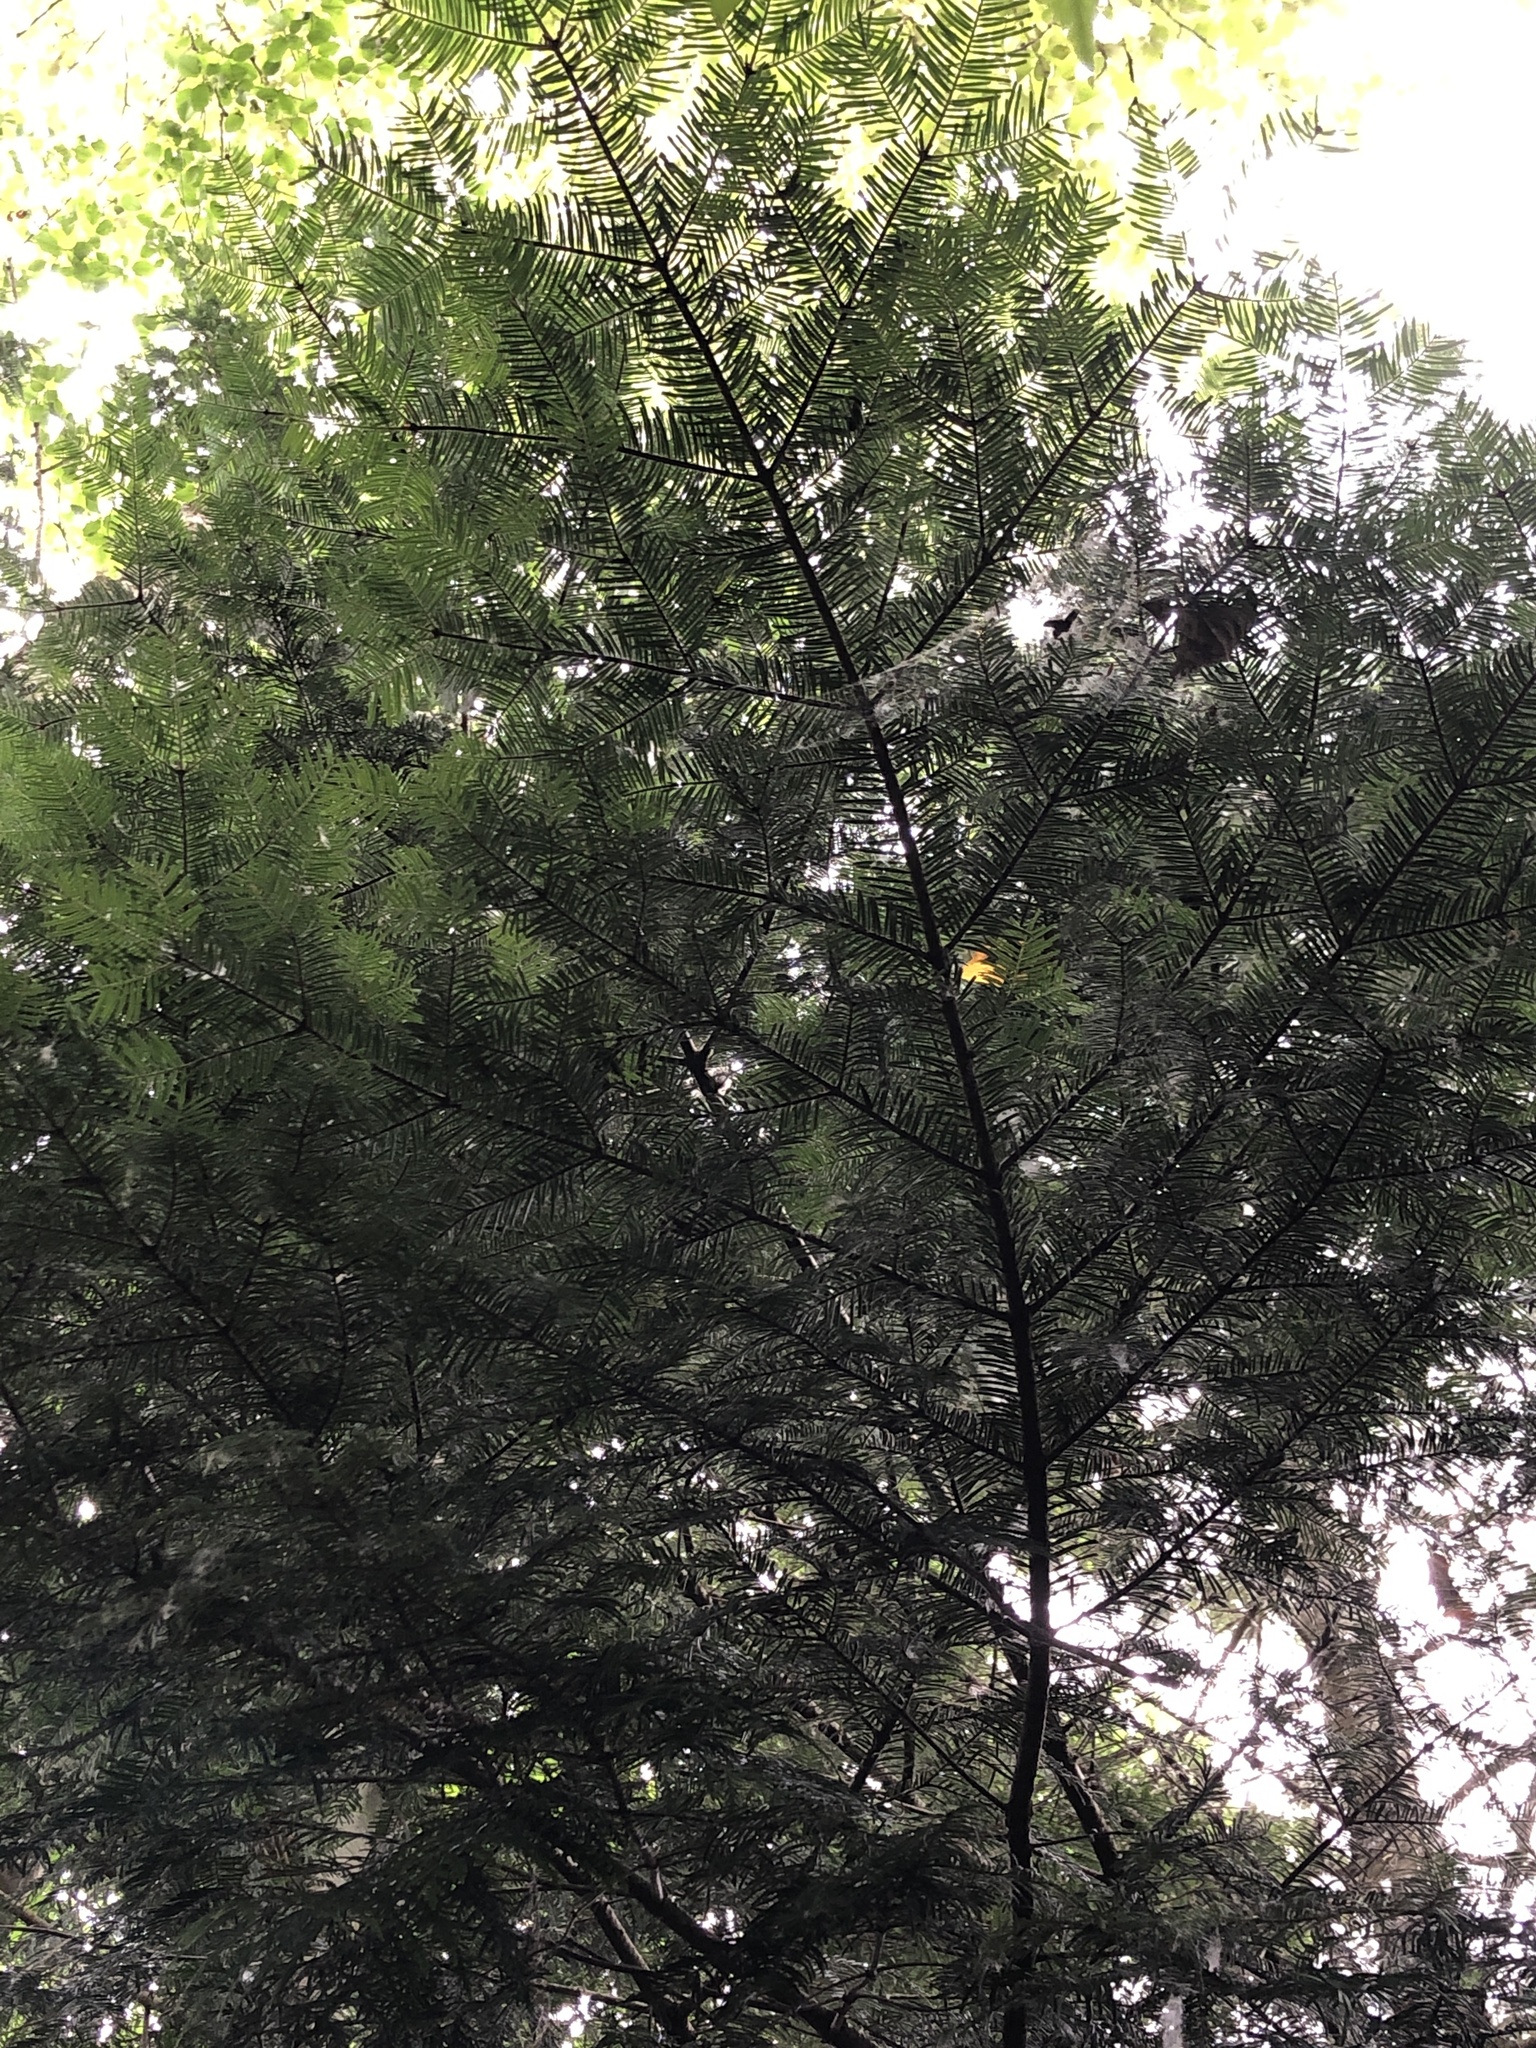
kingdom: Plantae
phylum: Tracheophyta
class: Pinopsida
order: Pinales
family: Pinaceae
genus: Abies
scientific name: Abies grandis
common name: Giant fir
